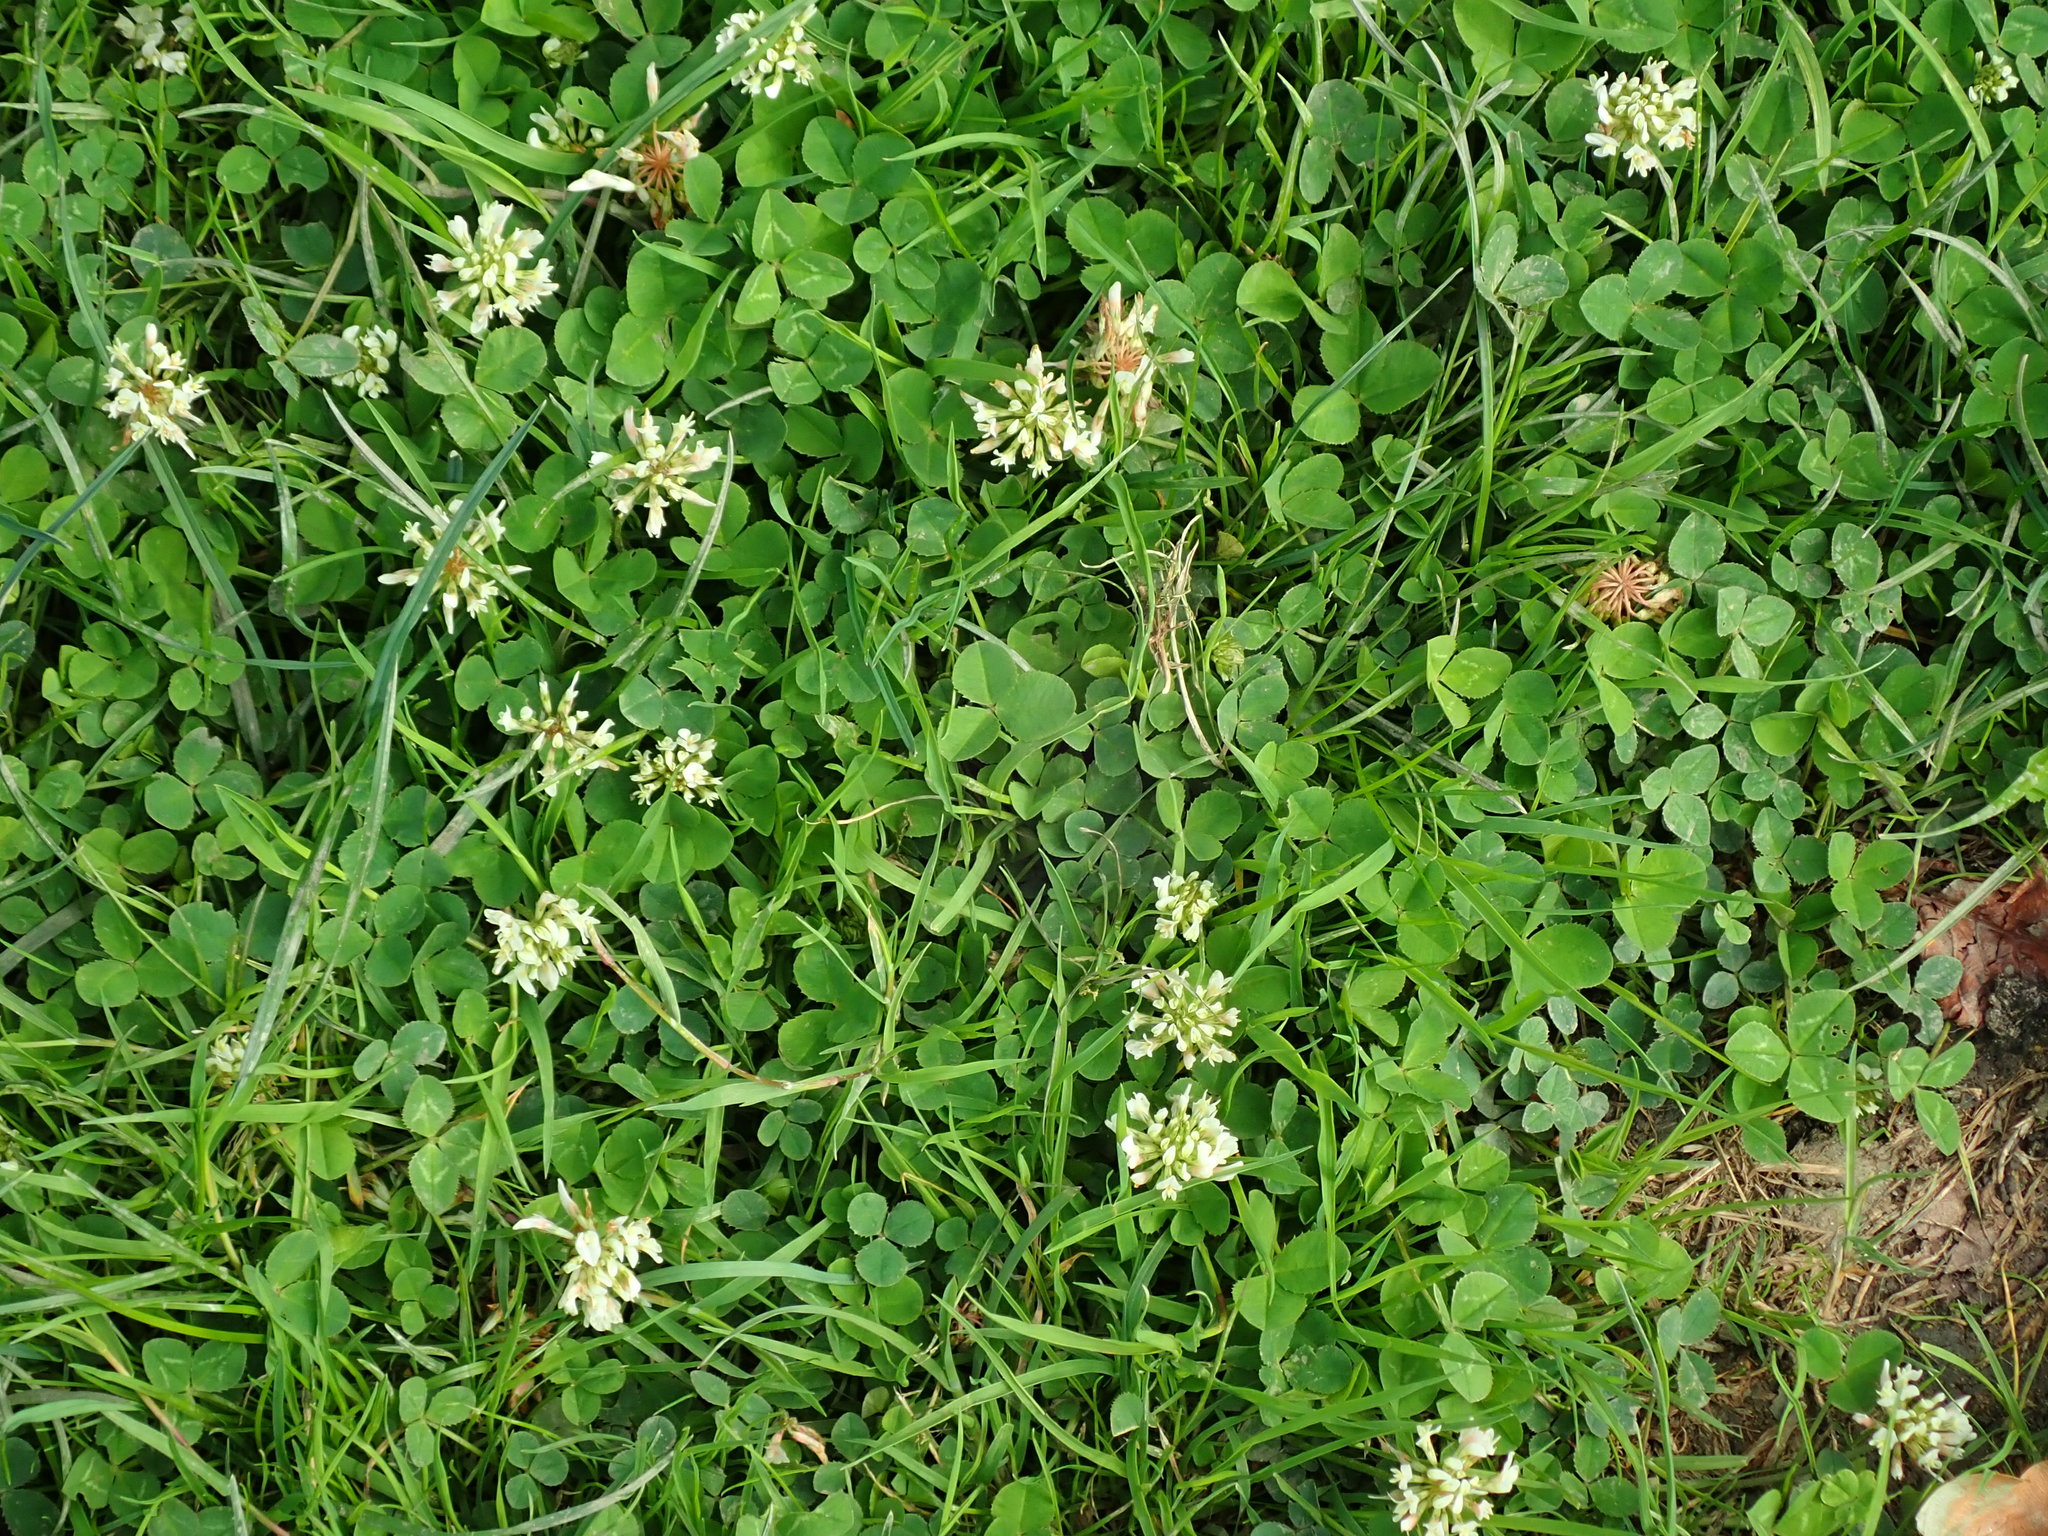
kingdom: Plantae
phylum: Tracheophyta
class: Magnoliopsida
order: Fabales
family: Fabaceae
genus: Trifolium
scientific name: Trifolium repens
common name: White clover
